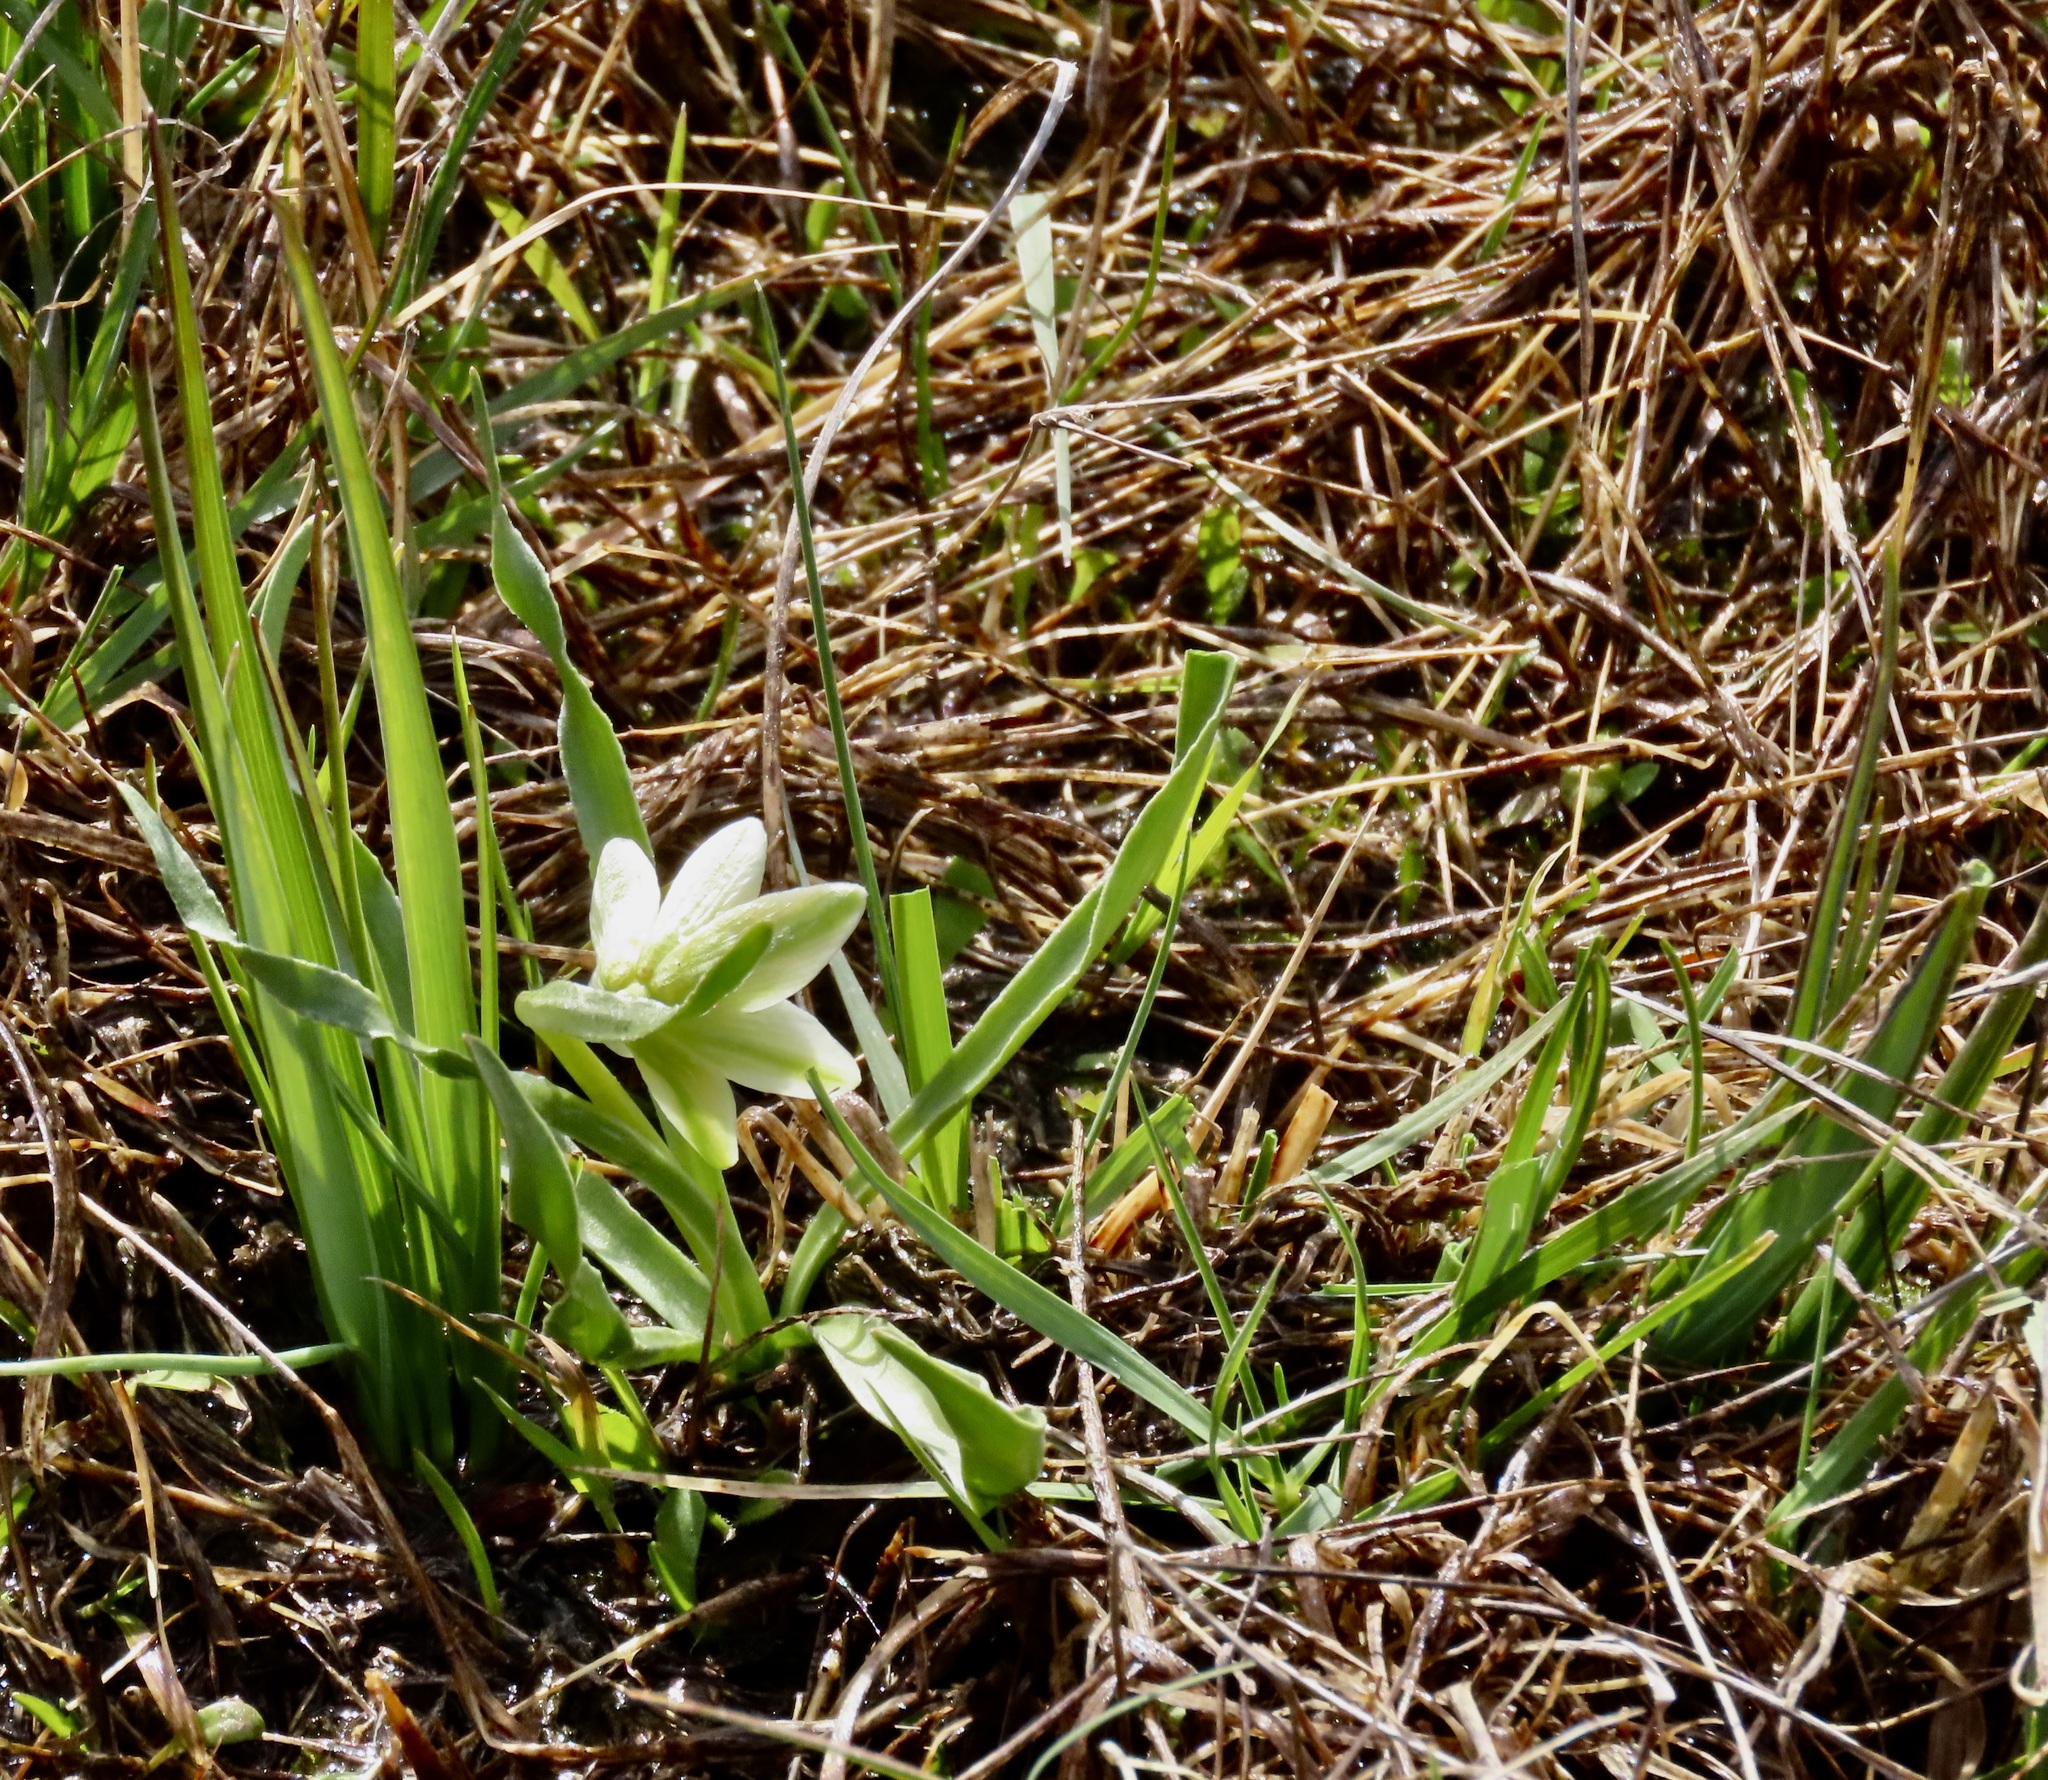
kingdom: Plantae
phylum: Tracheophyta
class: Liliopsida
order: Liliales
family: Liliaceae
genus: Fritillaria
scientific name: Fritillaria liliacea
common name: Fragrant fritillary
